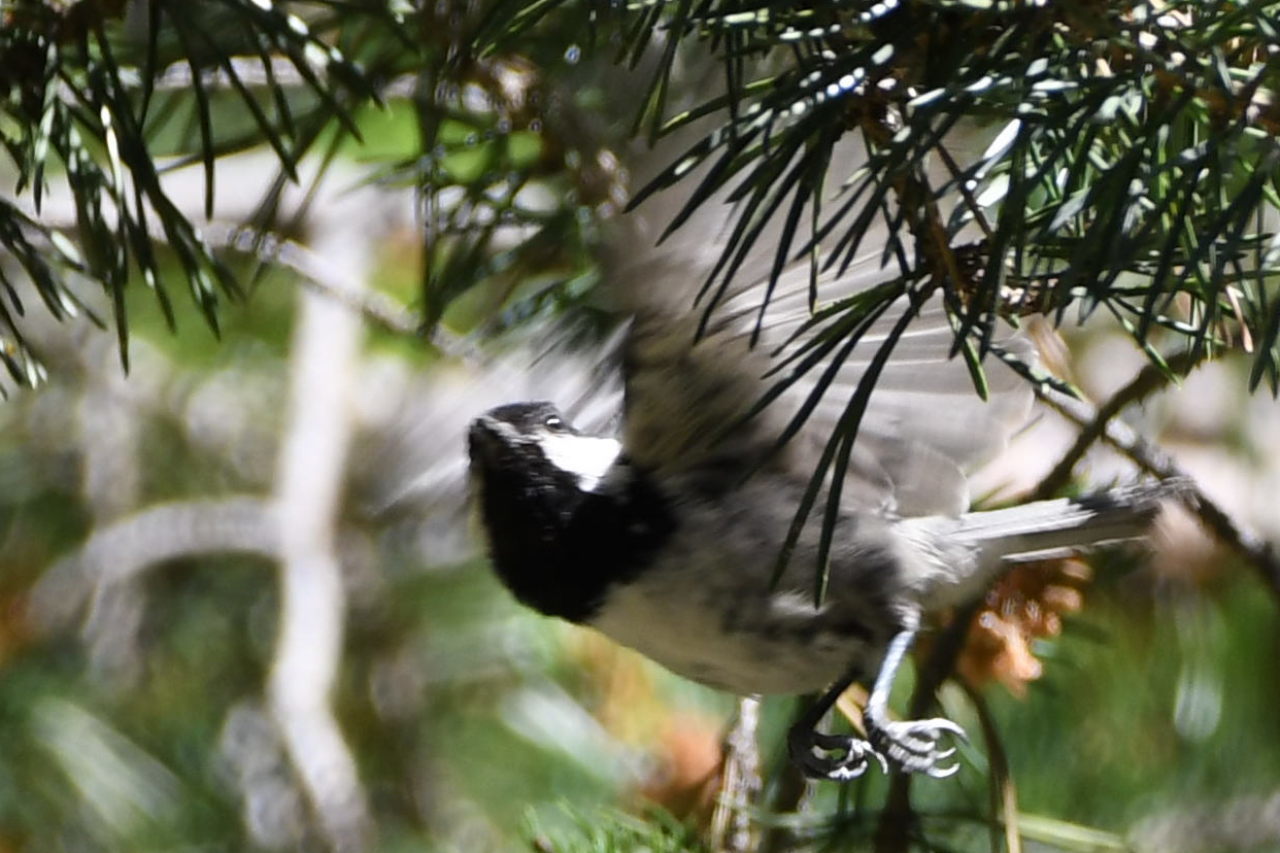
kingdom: Animalia
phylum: Chordata
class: Aves
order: Passeriformes
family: Paridae
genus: Periparus
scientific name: Periparus ater
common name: Coal tit
